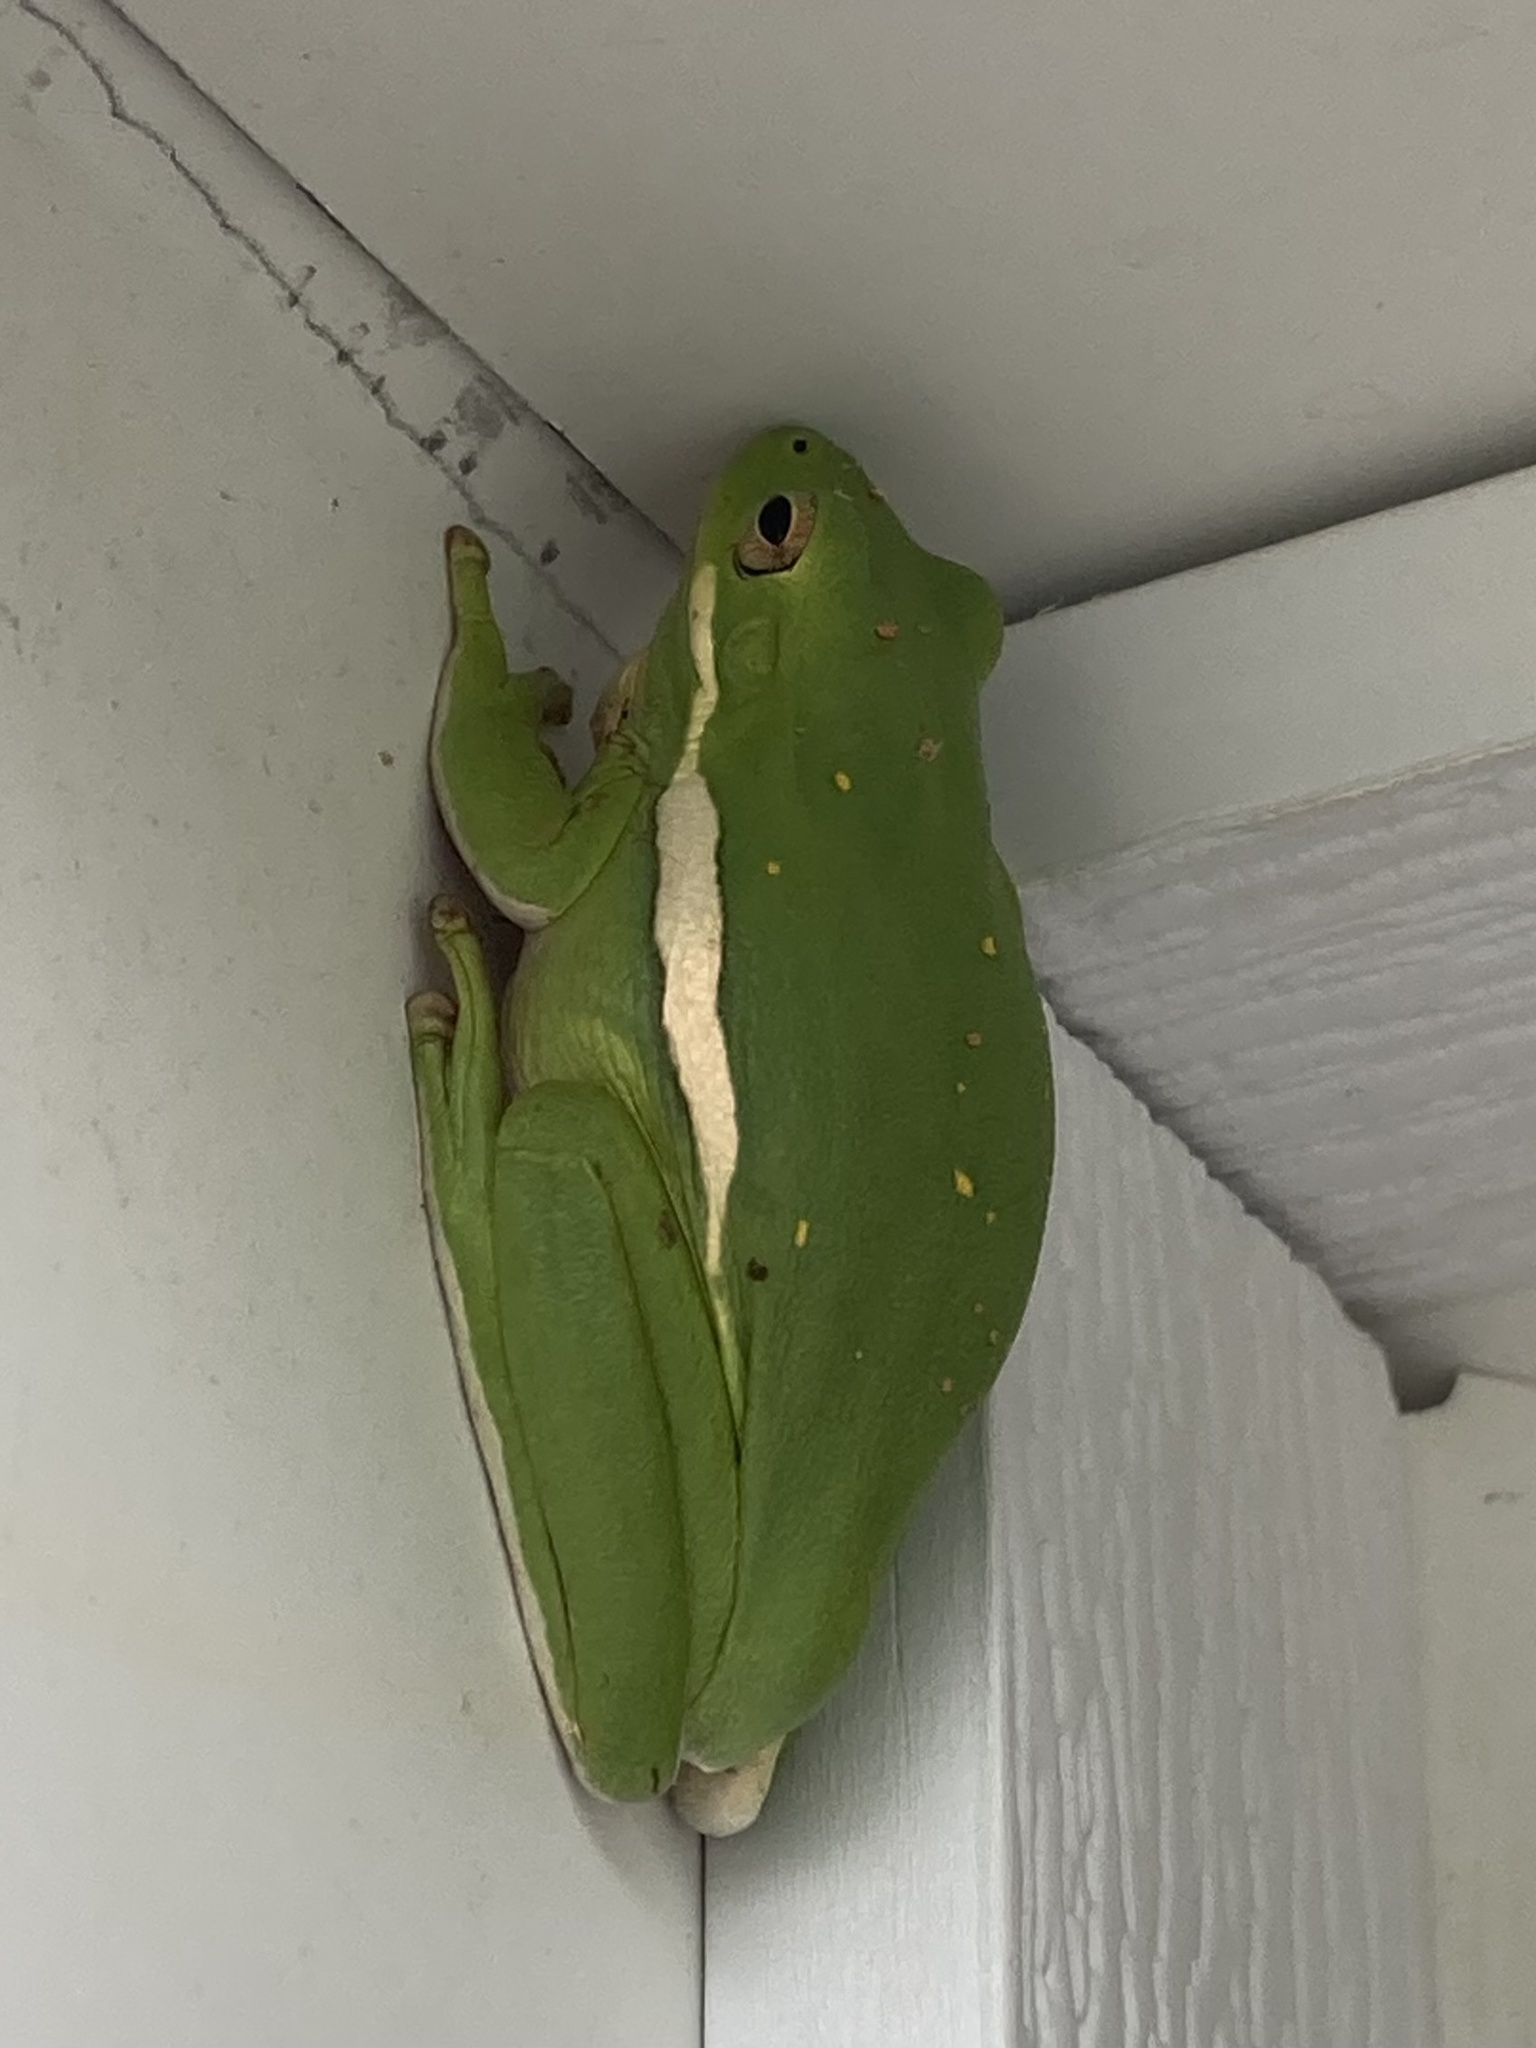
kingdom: Animalia
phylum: Chordata
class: Amphibia
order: Anura
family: Hylidae
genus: Dryophytes
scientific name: Dryophytes cinereus
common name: Green treefrog
